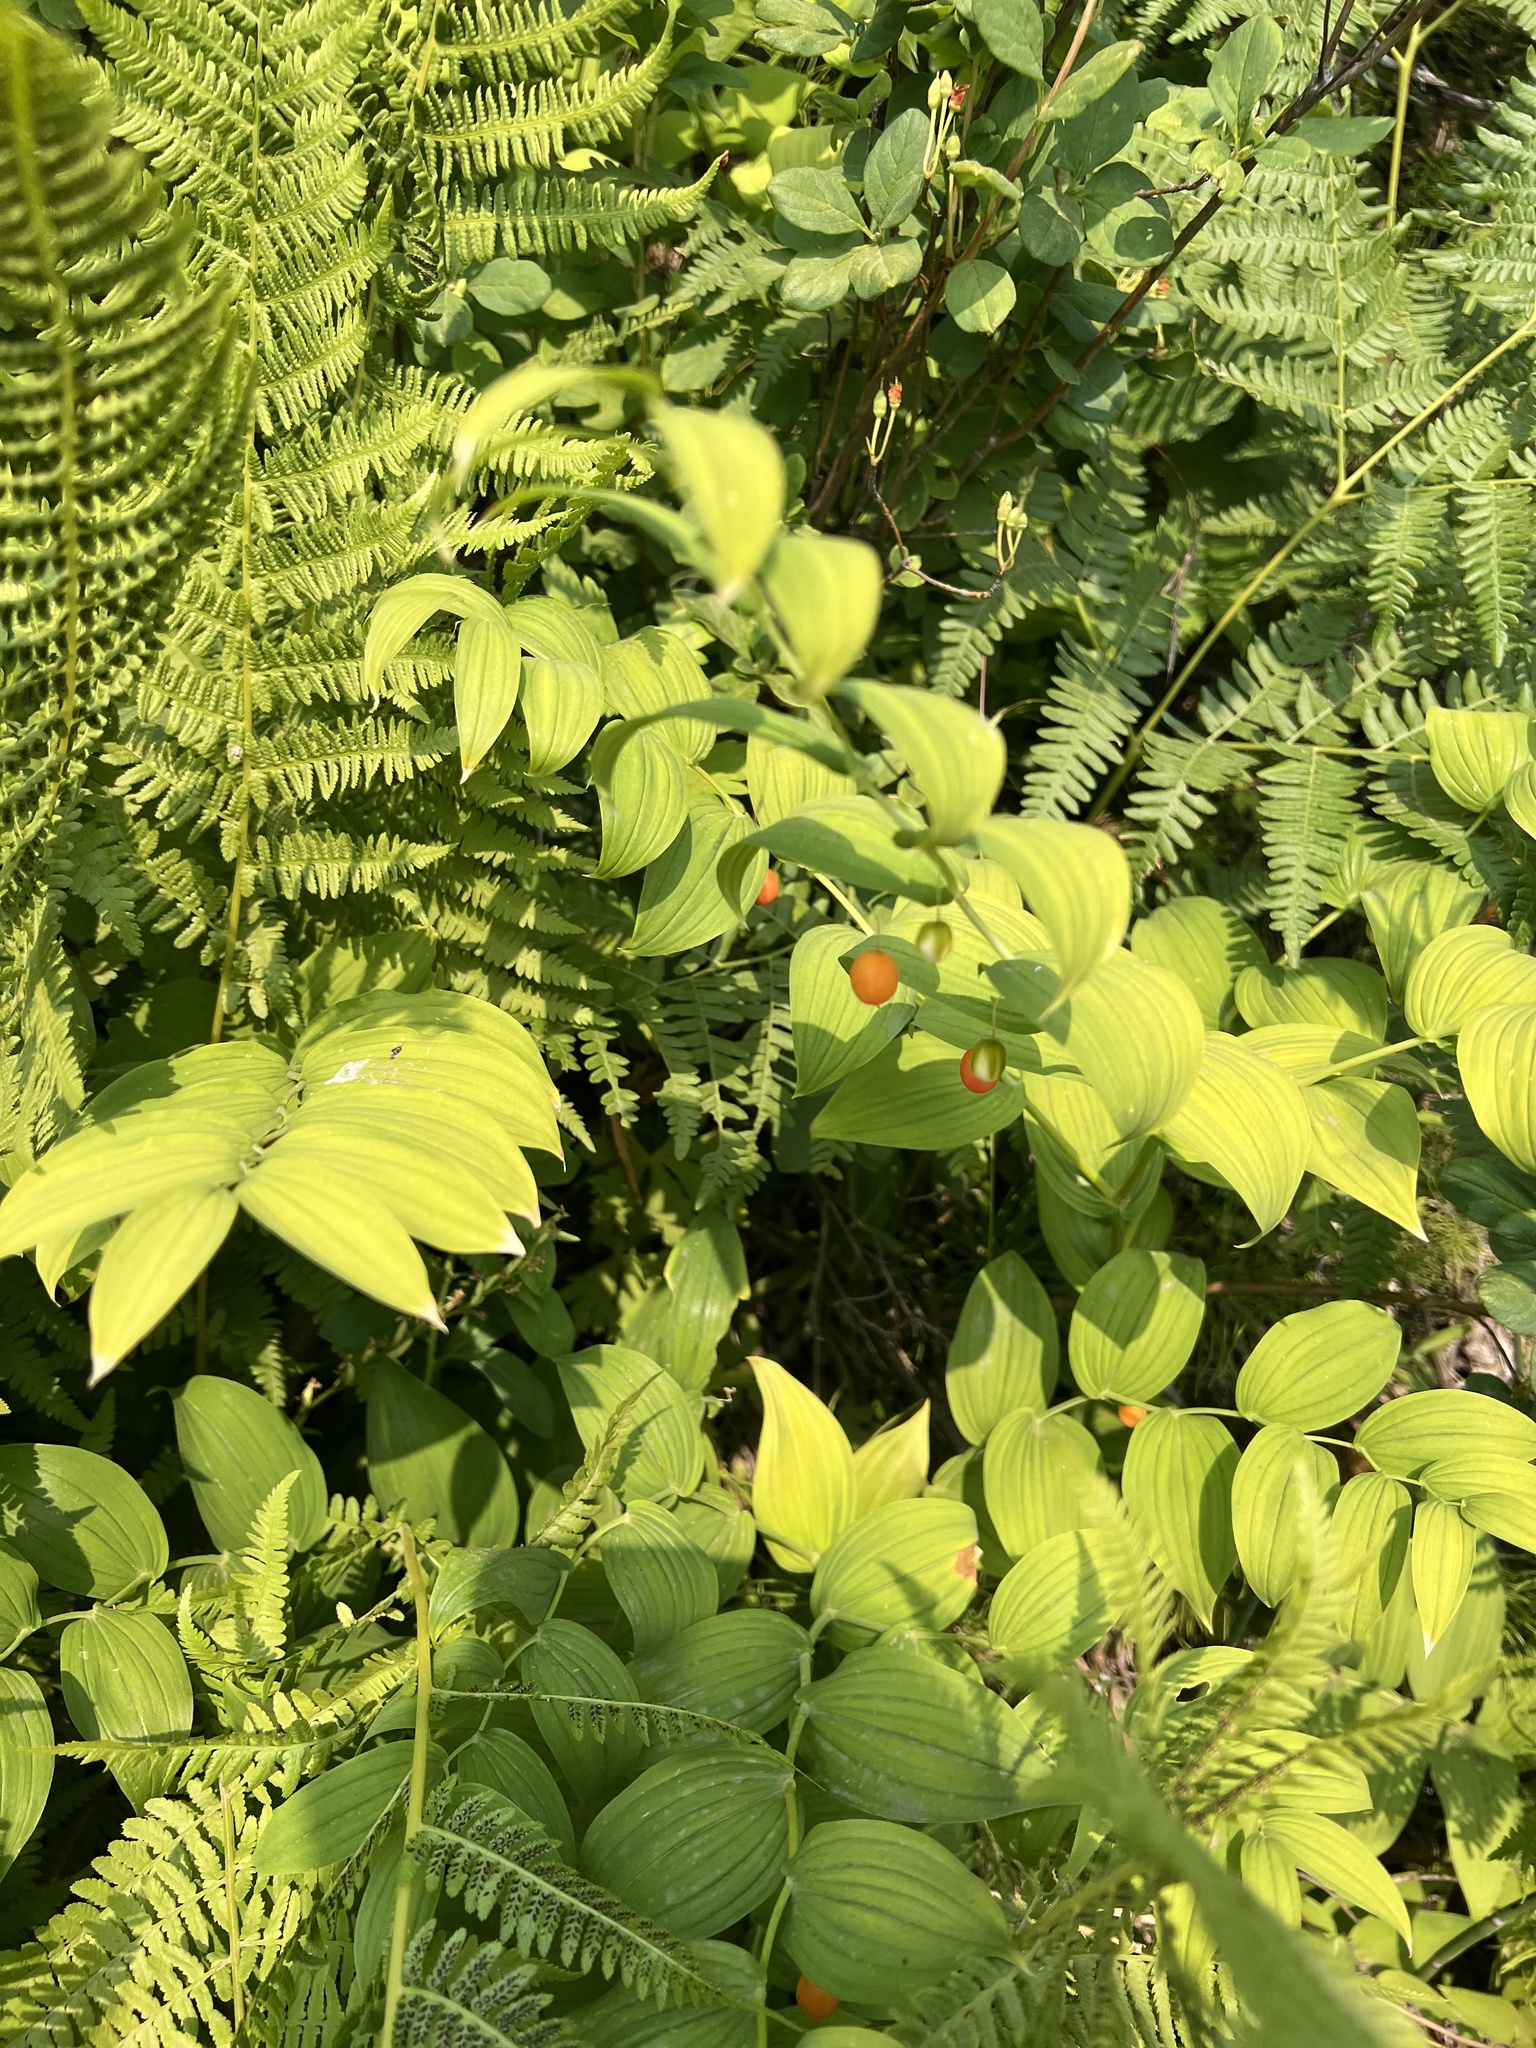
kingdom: Plantae
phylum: Tracheophyta
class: Liliopsida
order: Liliales
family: Liliaceae
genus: Streptopus
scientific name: Streptopus amplexifolius
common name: Clasp twisted stalk
